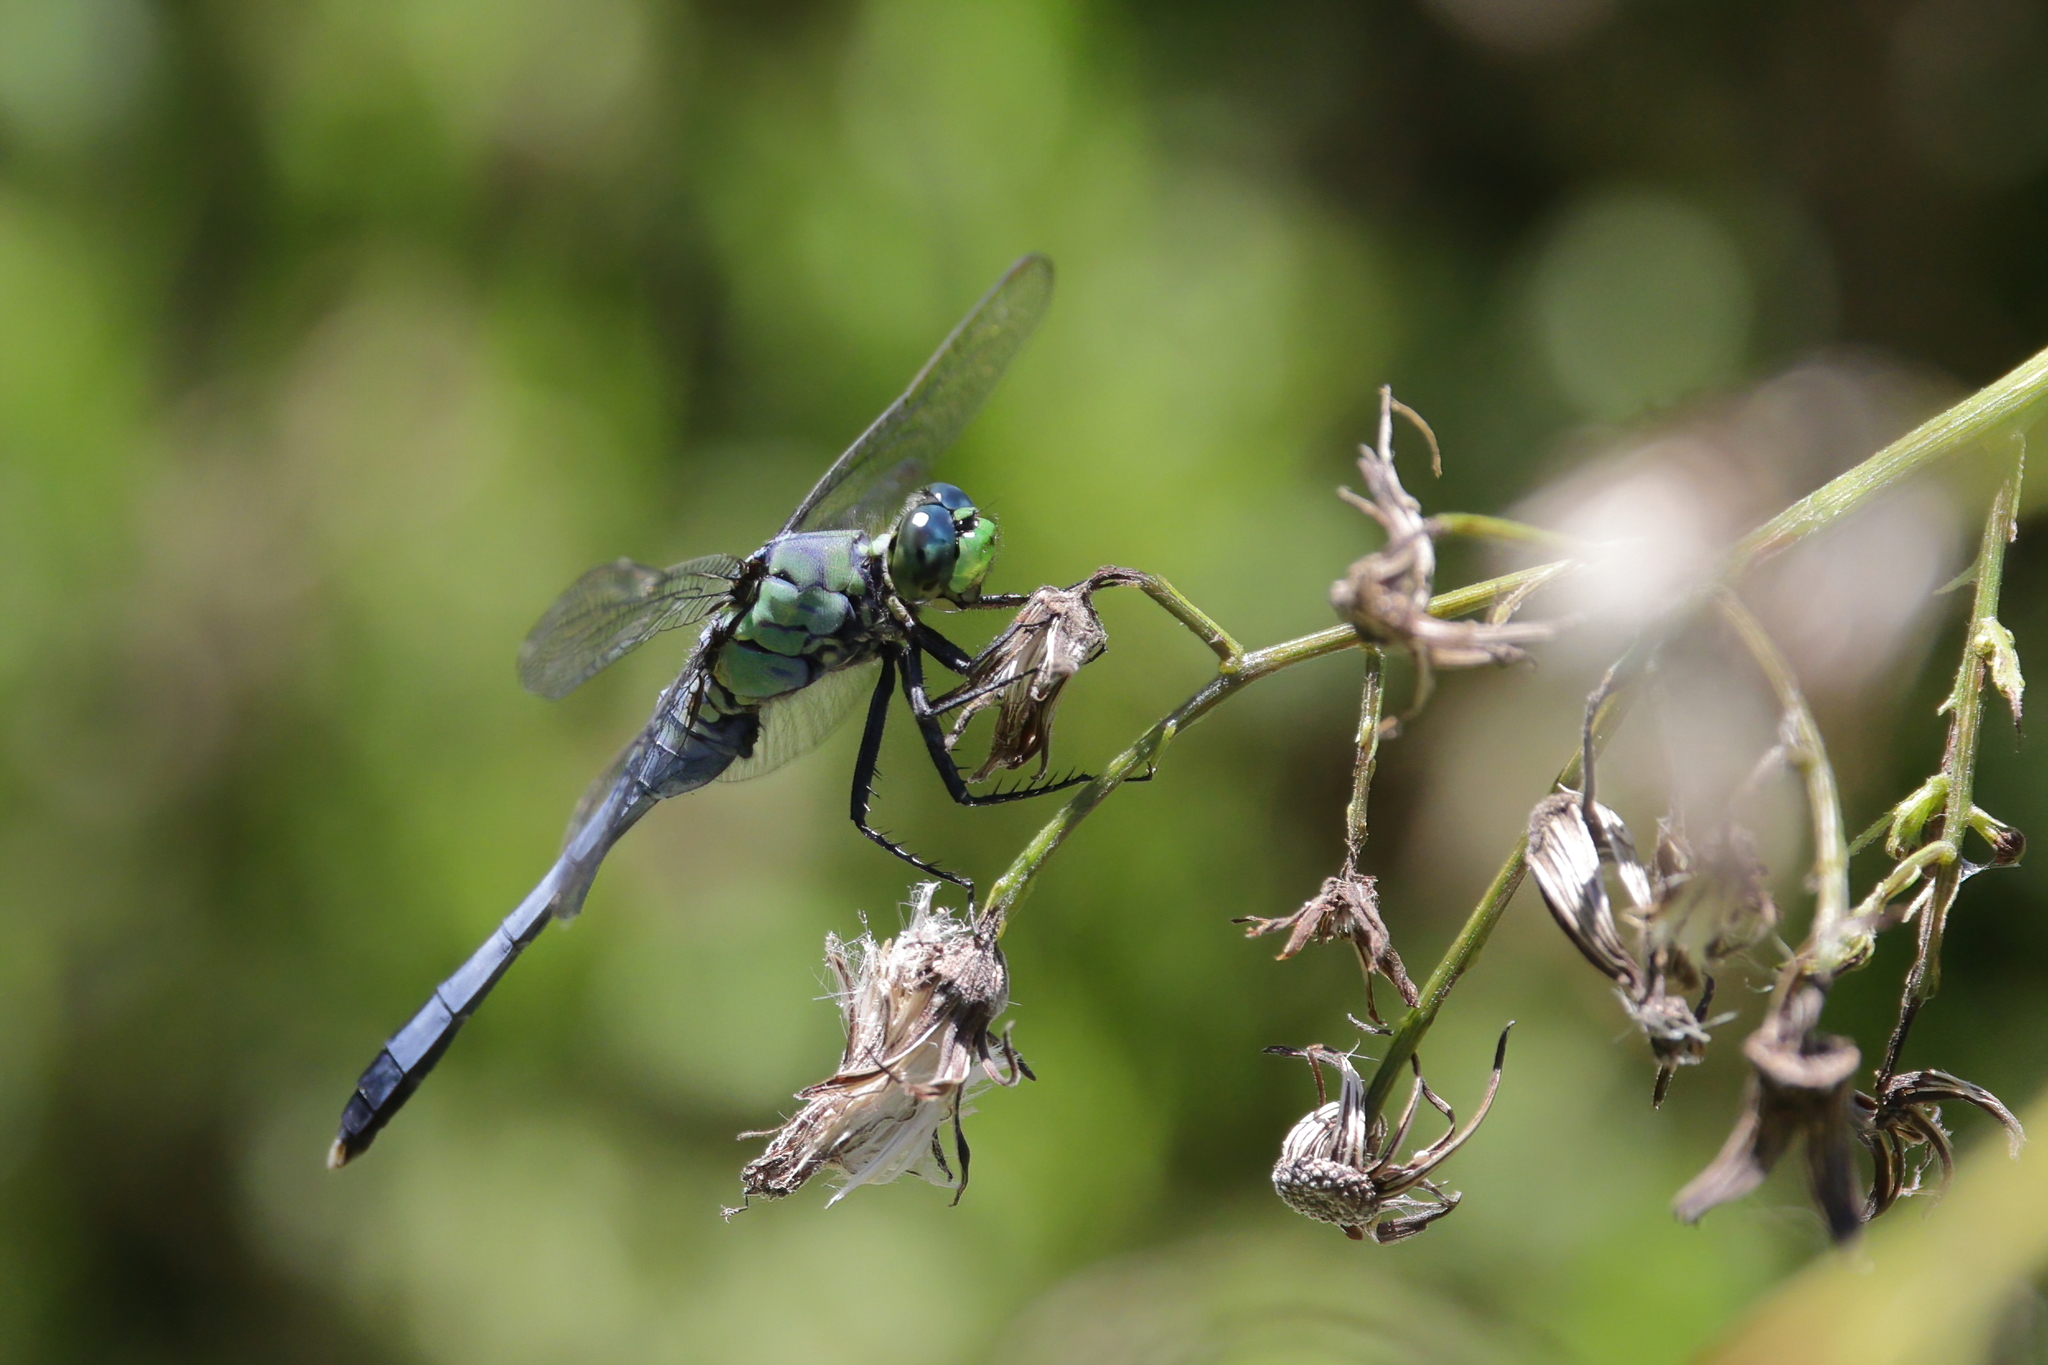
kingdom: Animalia
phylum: Arthropoda
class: Insecta
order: Odonata
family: Libellulidae
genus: Erythemis
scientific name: Erythemis simplicicollis
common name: Eastern pondhawk
